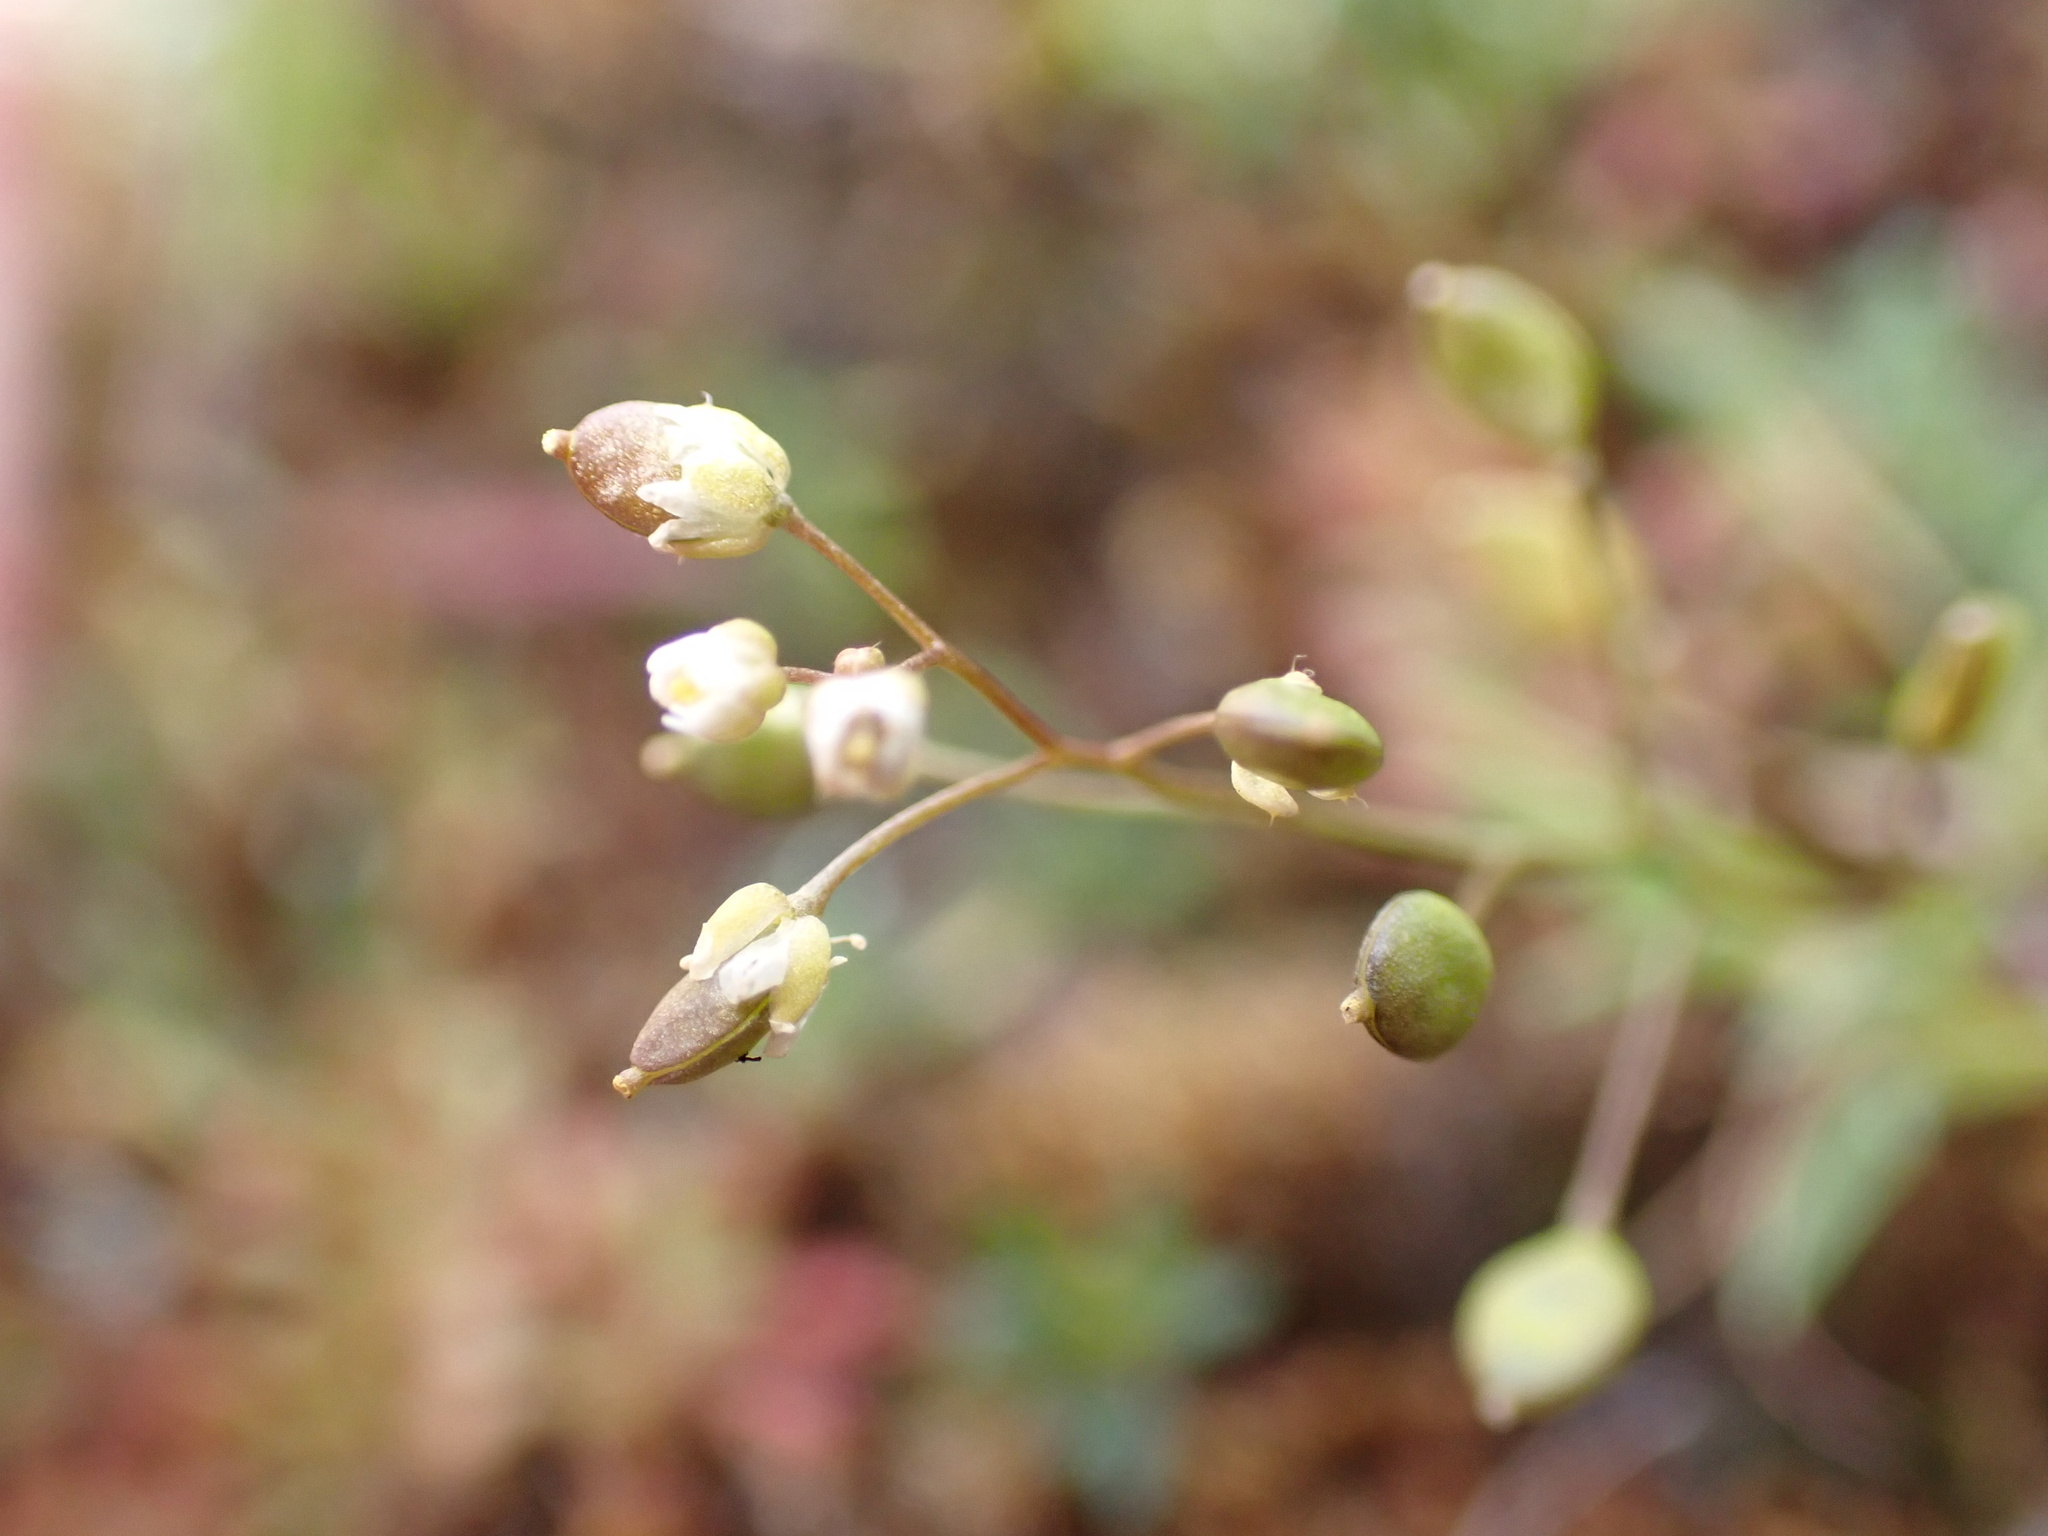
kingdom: Plantae
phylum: Tracheophyta
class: Magnoliopsida
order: Brassicales
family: Brassicaceae
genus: Draba
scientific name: Draba verna
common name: Spring draba
